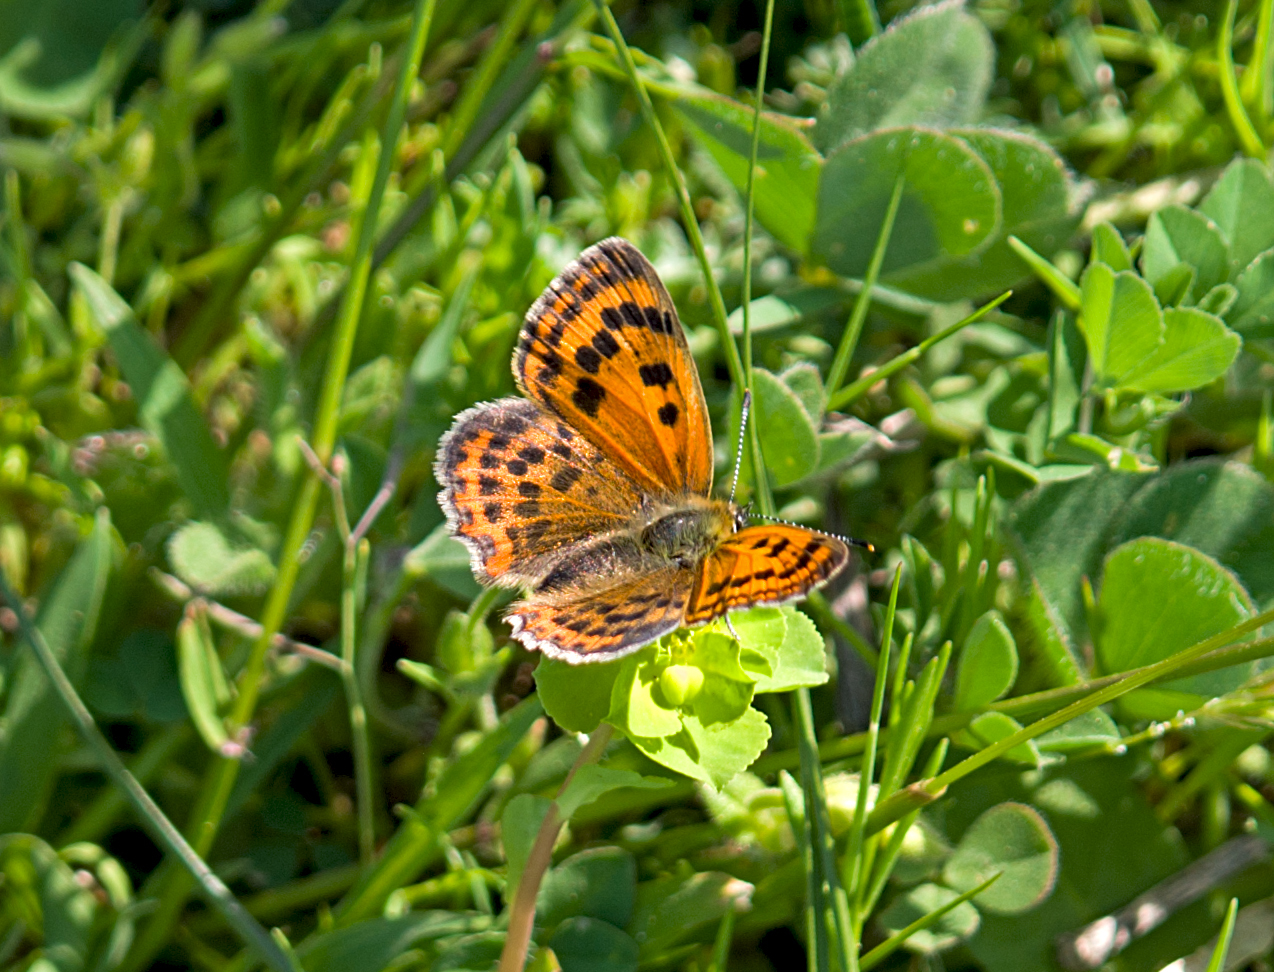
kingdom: Animalia
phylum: Arthropoda
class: Insecta
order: Lepidoptera
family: Lycaenidae
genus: Polyommatus
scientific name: Polyommatus ottomanus
